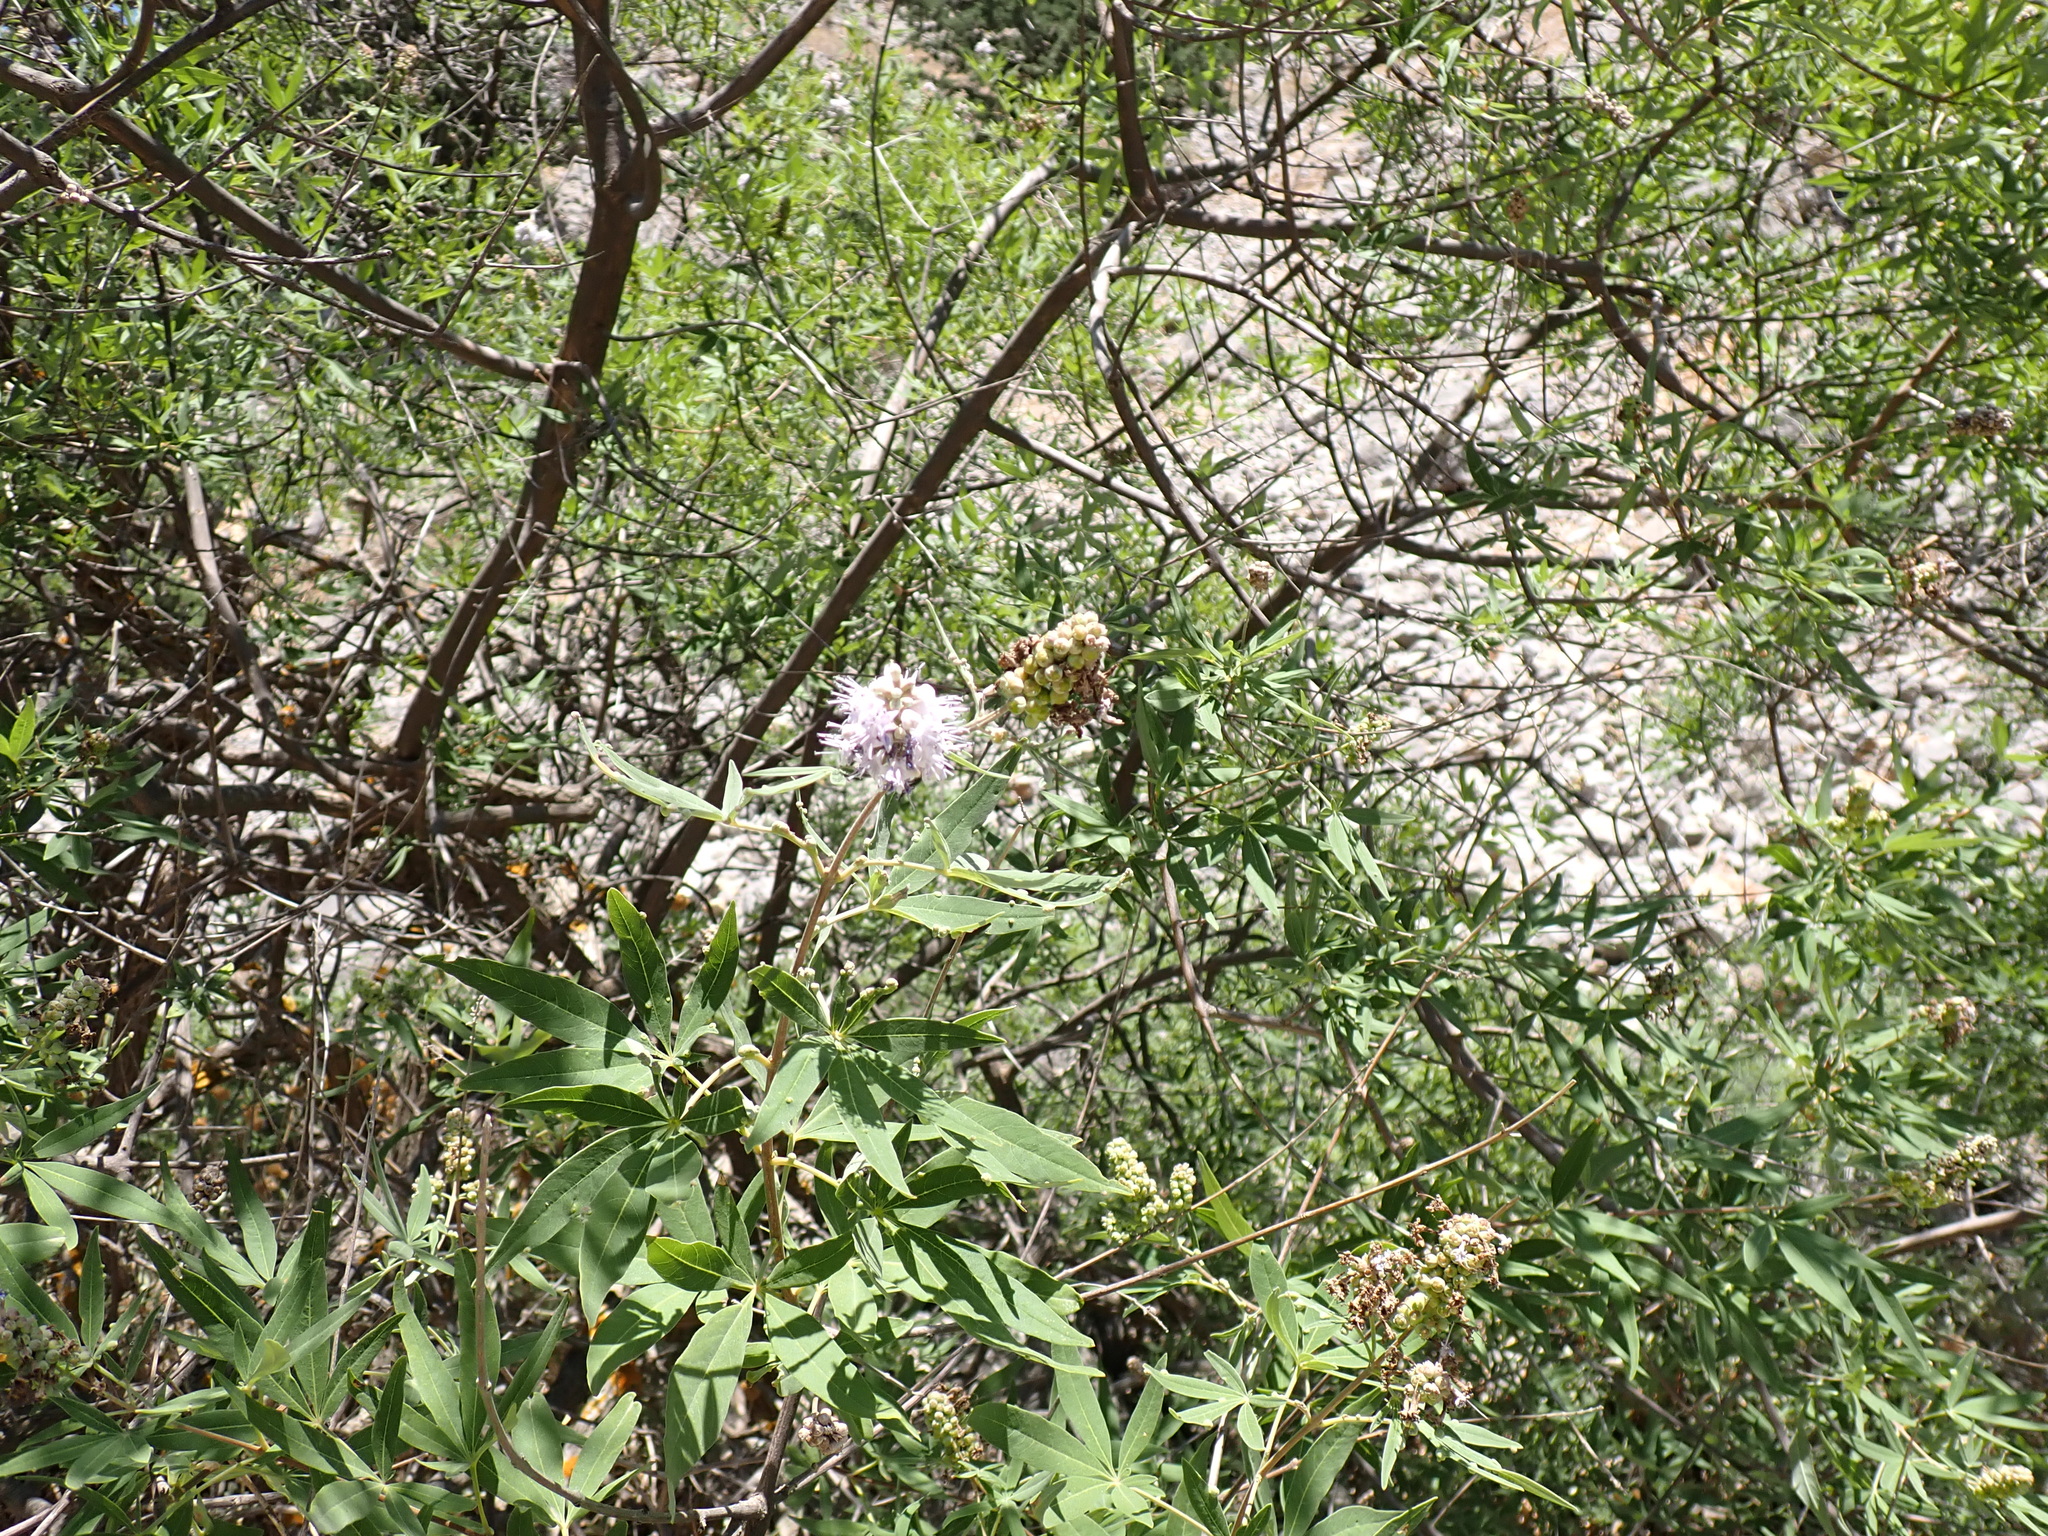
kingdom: Plantae
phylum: Tracheophyta
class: Magnoliopsida
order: Lamiales
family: Lamiaceae
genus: Vitex
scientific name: Vitex agnus-castus
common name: Chasteberry
